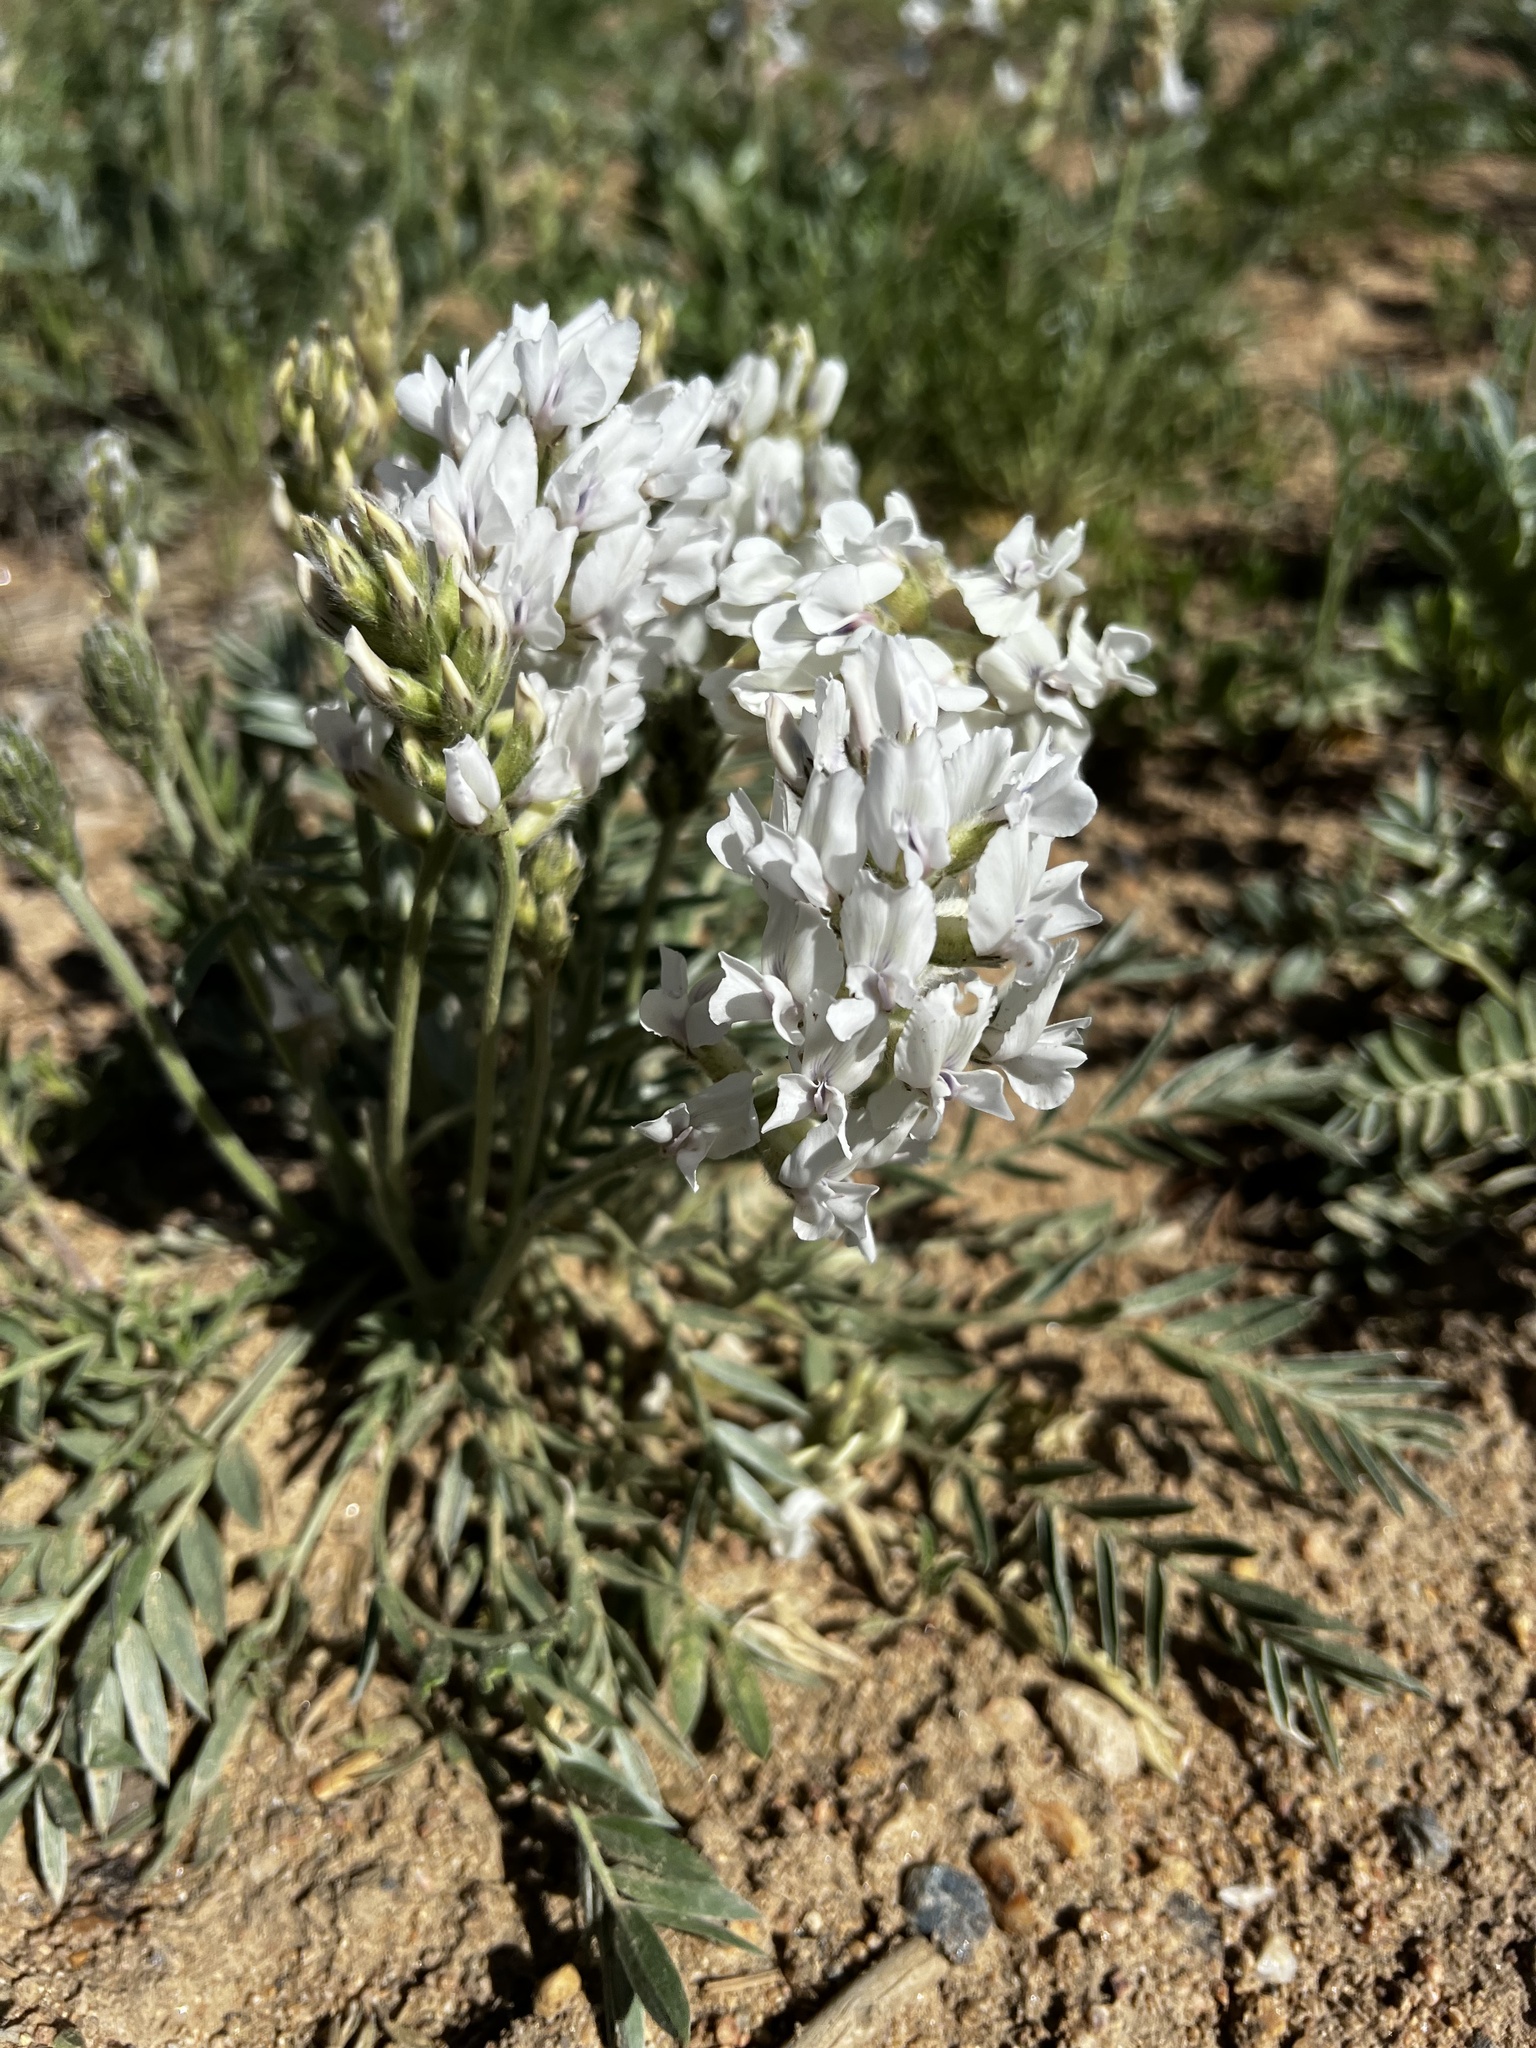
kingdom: Plantae
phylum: Tracheophyta
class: Magnoliopsida
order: Fabales
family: Fabaceae
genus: Oxytropis
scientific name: Oxytropis sericea
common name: Silky locoweed
